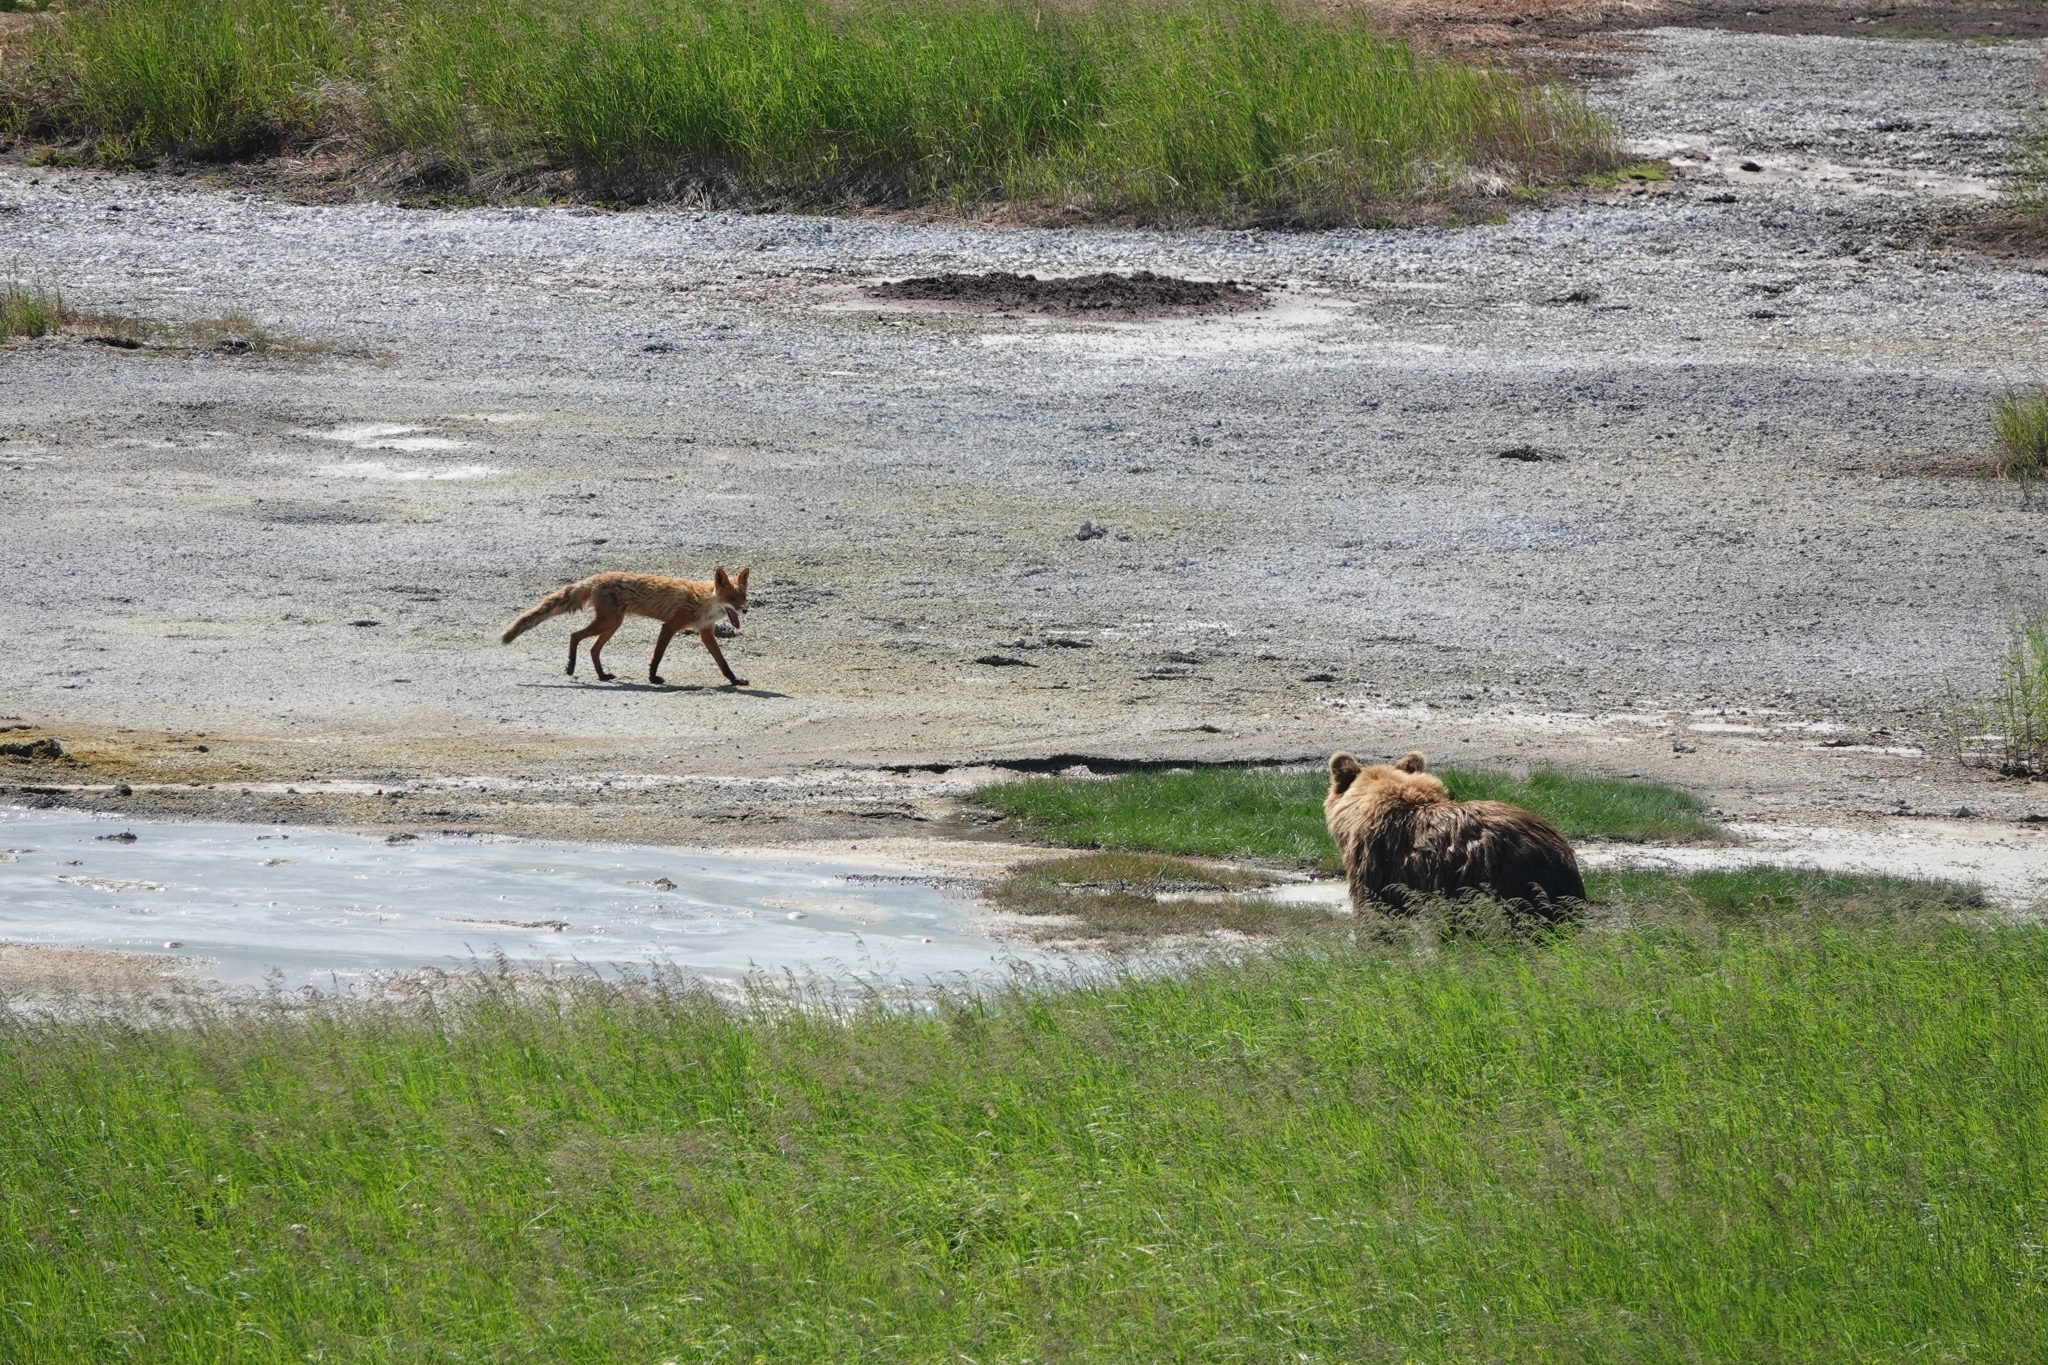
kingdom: Animalia
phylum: Chordata
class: Mammalia
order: Carnivora
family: Ursidae
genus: Ursus
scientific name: Ursus arctos
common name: Brown bear
